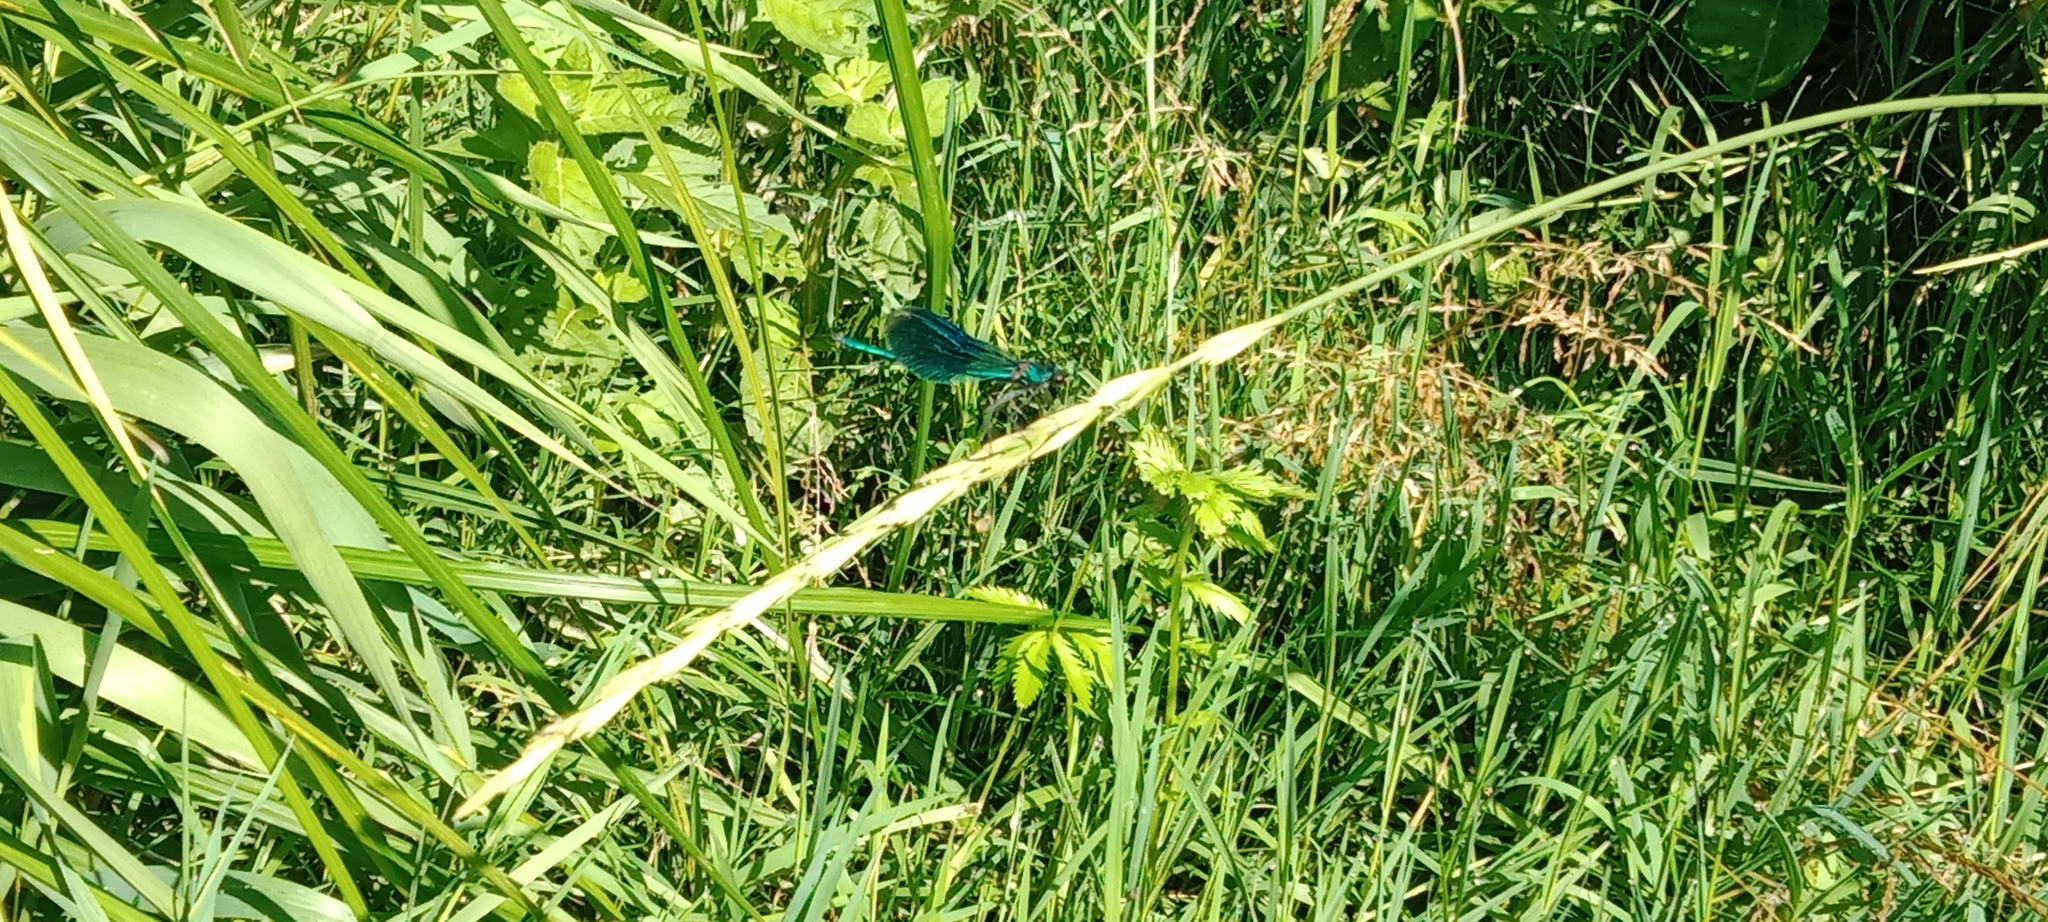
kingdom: Animalia
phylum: Arthropoda
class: Insecta
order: Odonata
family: Calopterygidae
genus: Calopteryx
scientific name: Calopteryx splendens
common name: Banded demoiselle
